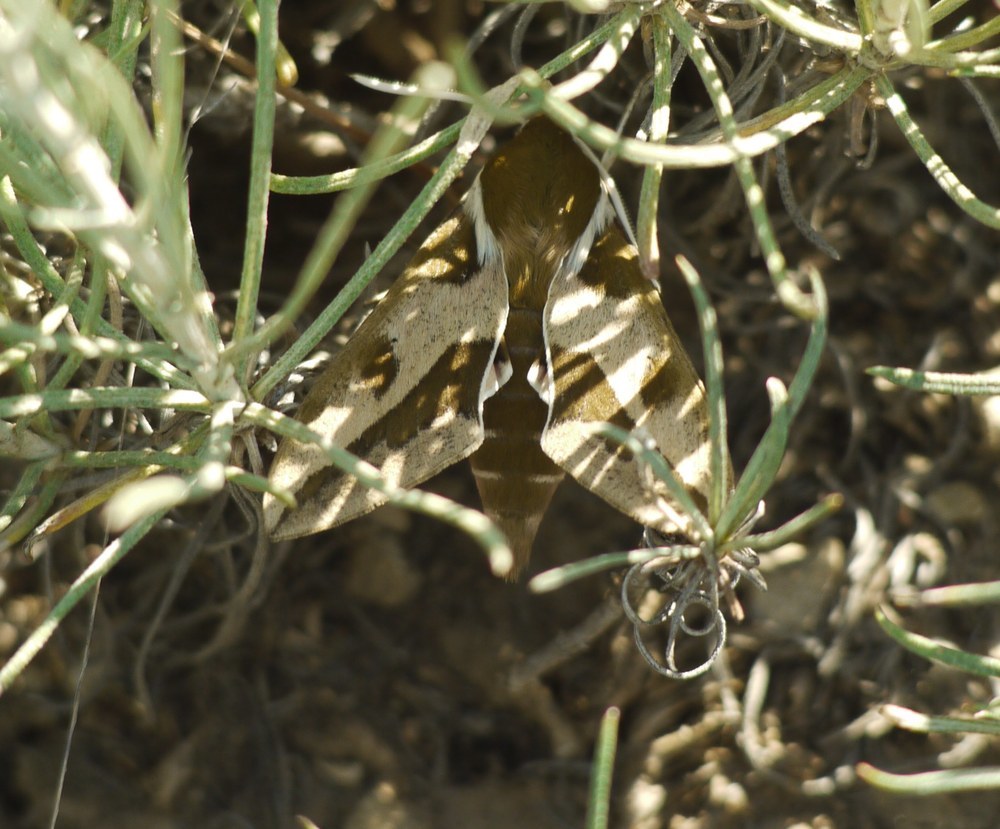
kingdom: Animalia
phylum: Arthropoda
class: Insecta
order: Lepidoptera
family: Sphingidae
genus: Hyles
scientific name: Hyles euphorbiae
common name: Spurge hawk-moth
